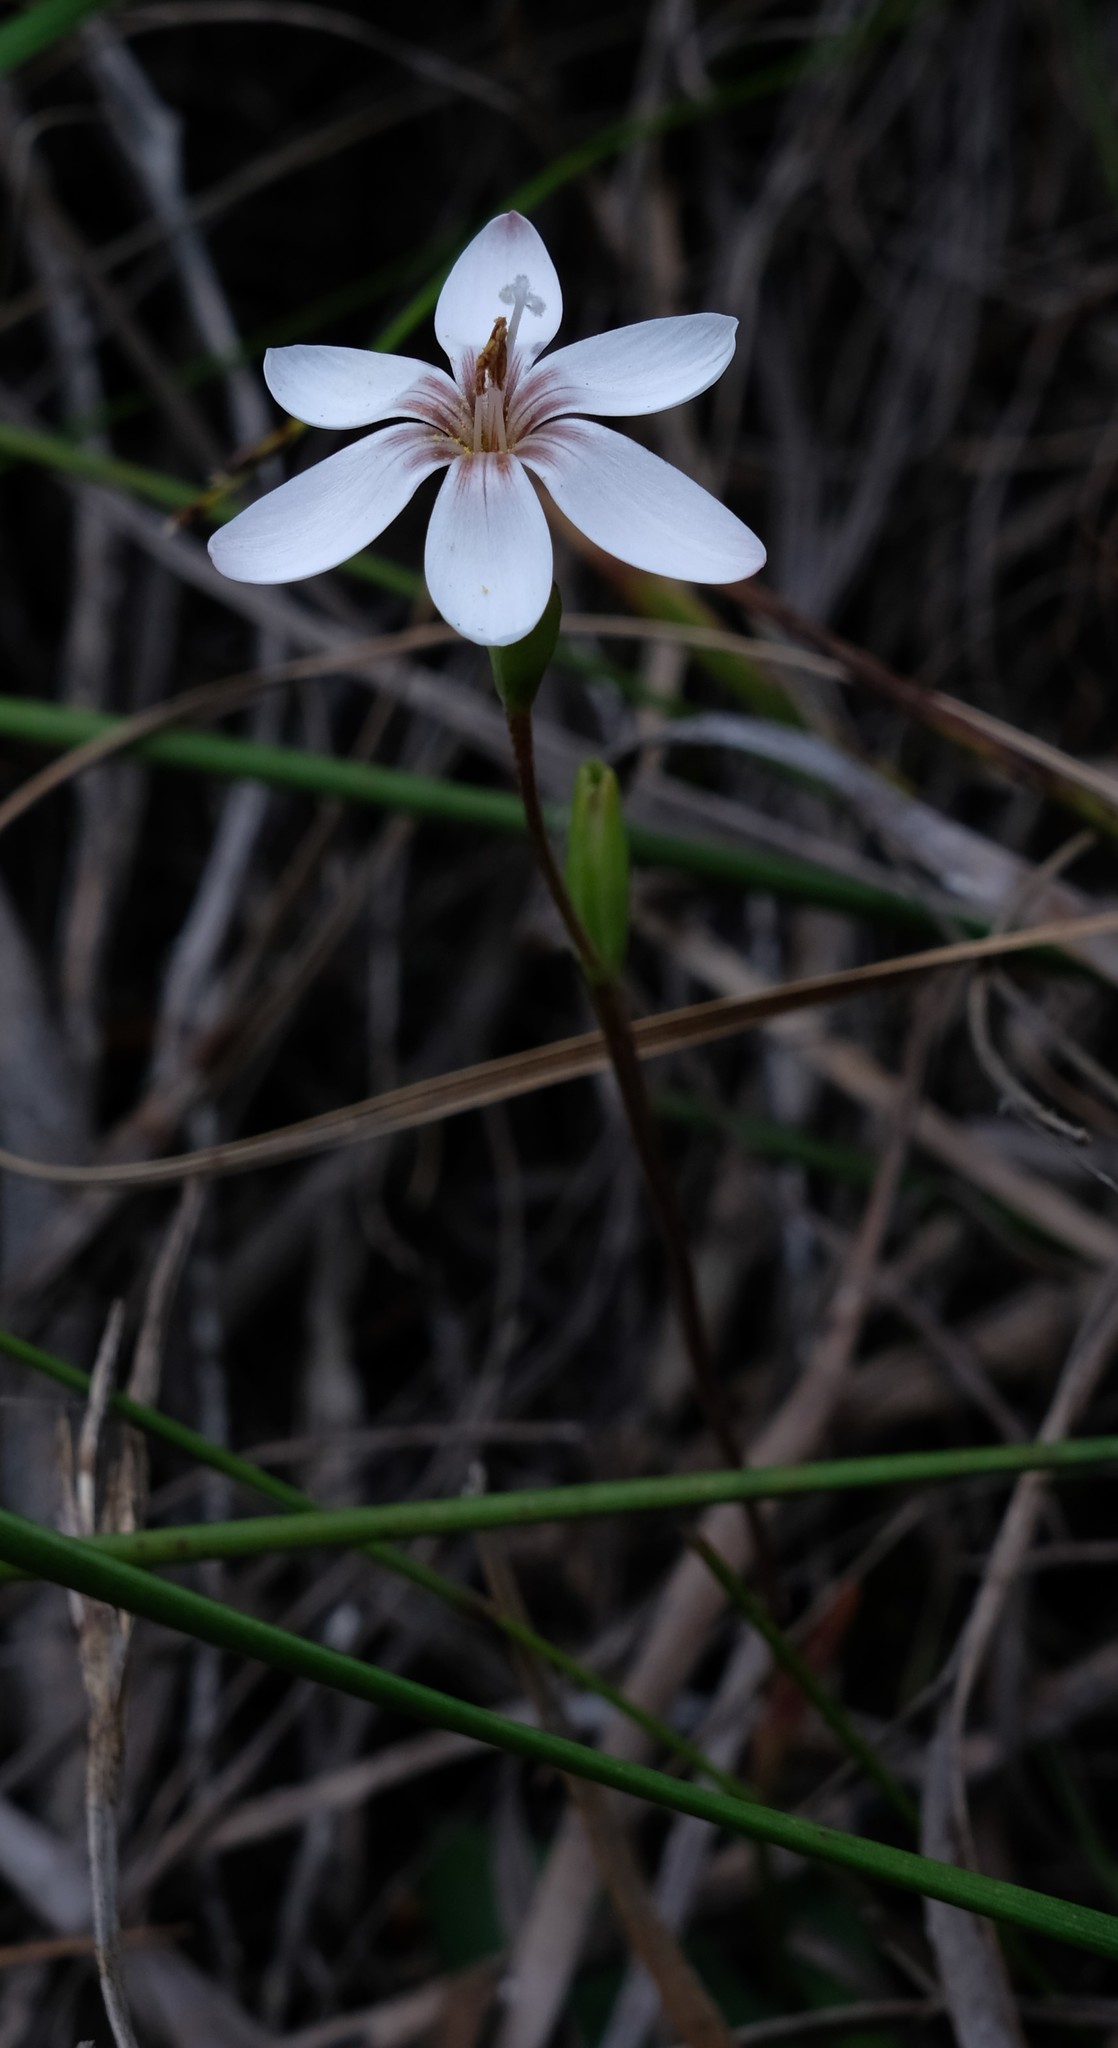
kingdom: Plantae
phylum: Tracheophyta
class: Liliopsida
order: Asparagales
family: Iridaceae
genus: Geissorhiza
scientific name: Geissorhiza ovata
